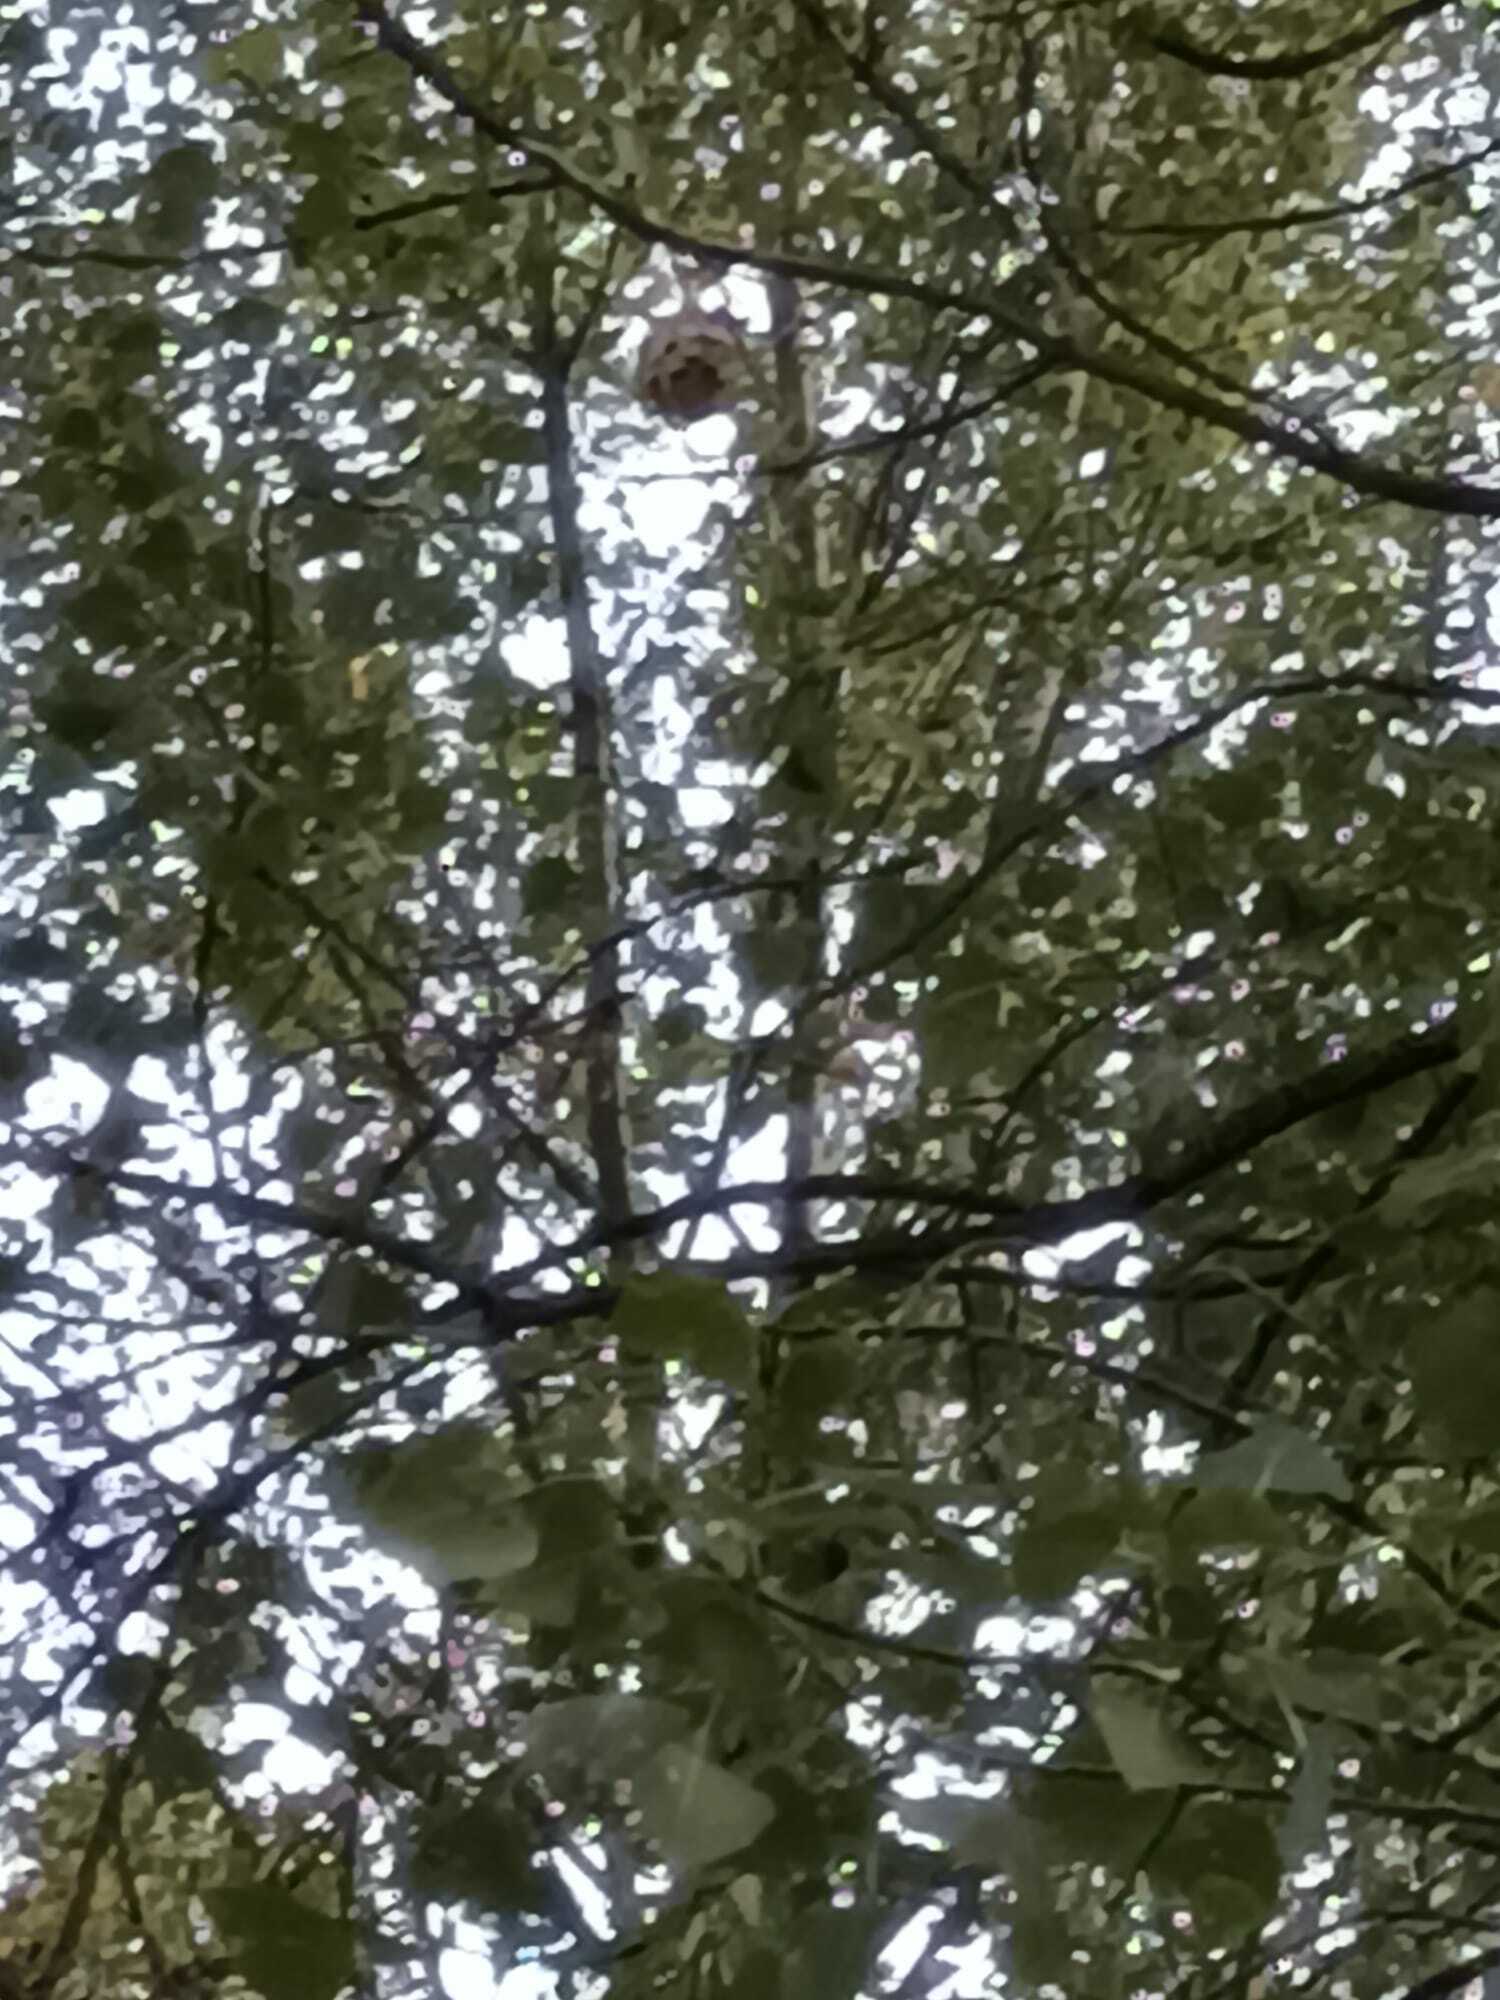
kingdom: Animalia
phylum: Arthropoda
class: Insecta
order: Hymenoptera
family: Vespidae
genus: Vespa
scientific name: Vespa velutina
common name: Asian hornet
